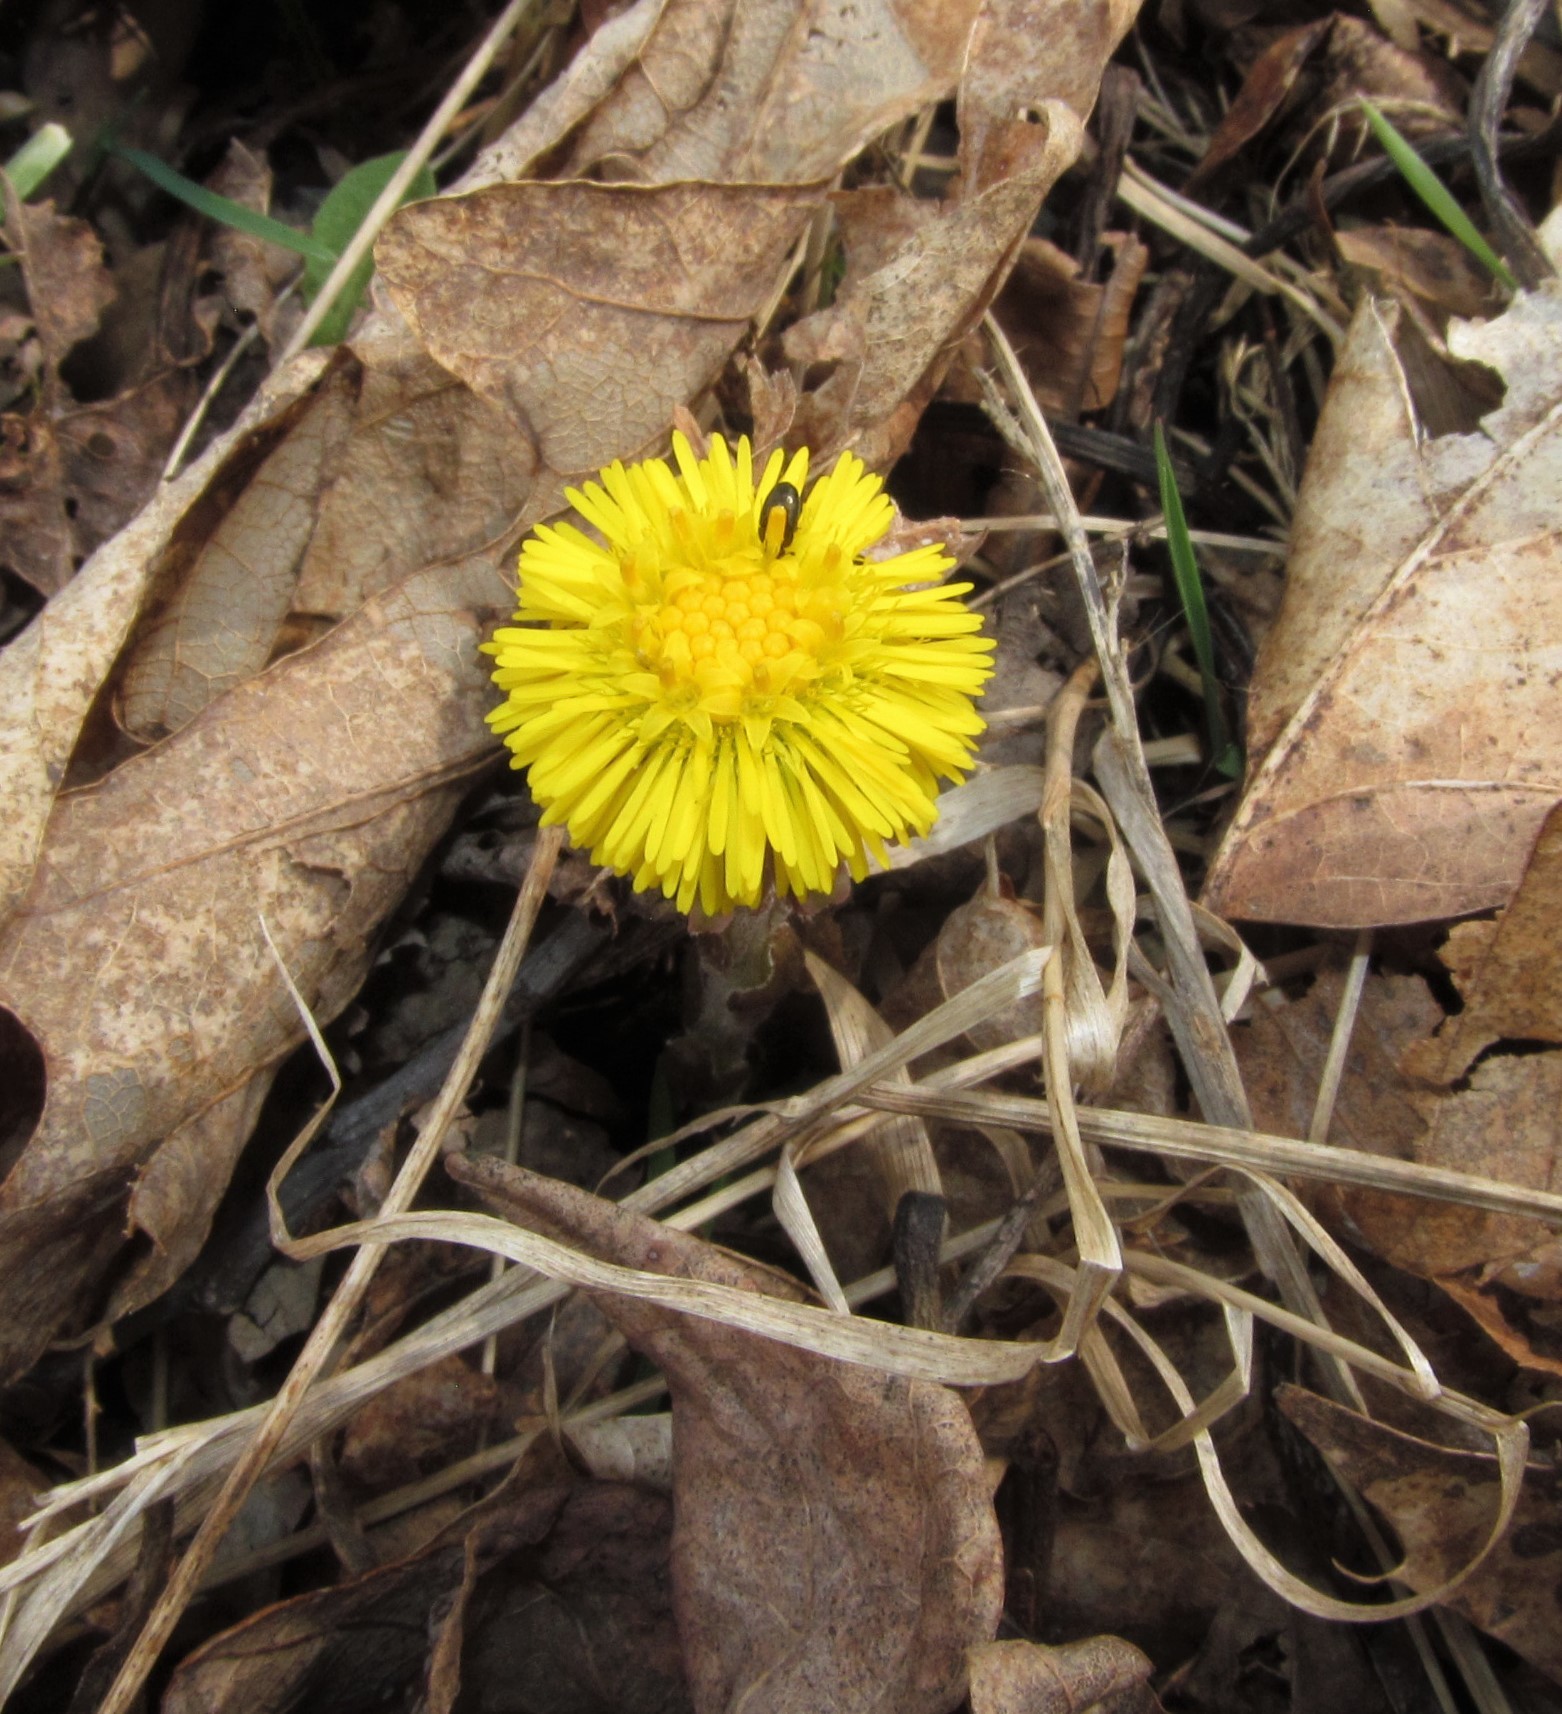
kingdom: Plantae
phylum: Tracheophyta
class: Magnoliopsida
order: Asterales
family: Asteraceae
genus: Tussilago
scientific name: Tussilago farfara
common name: Coltsfoot
